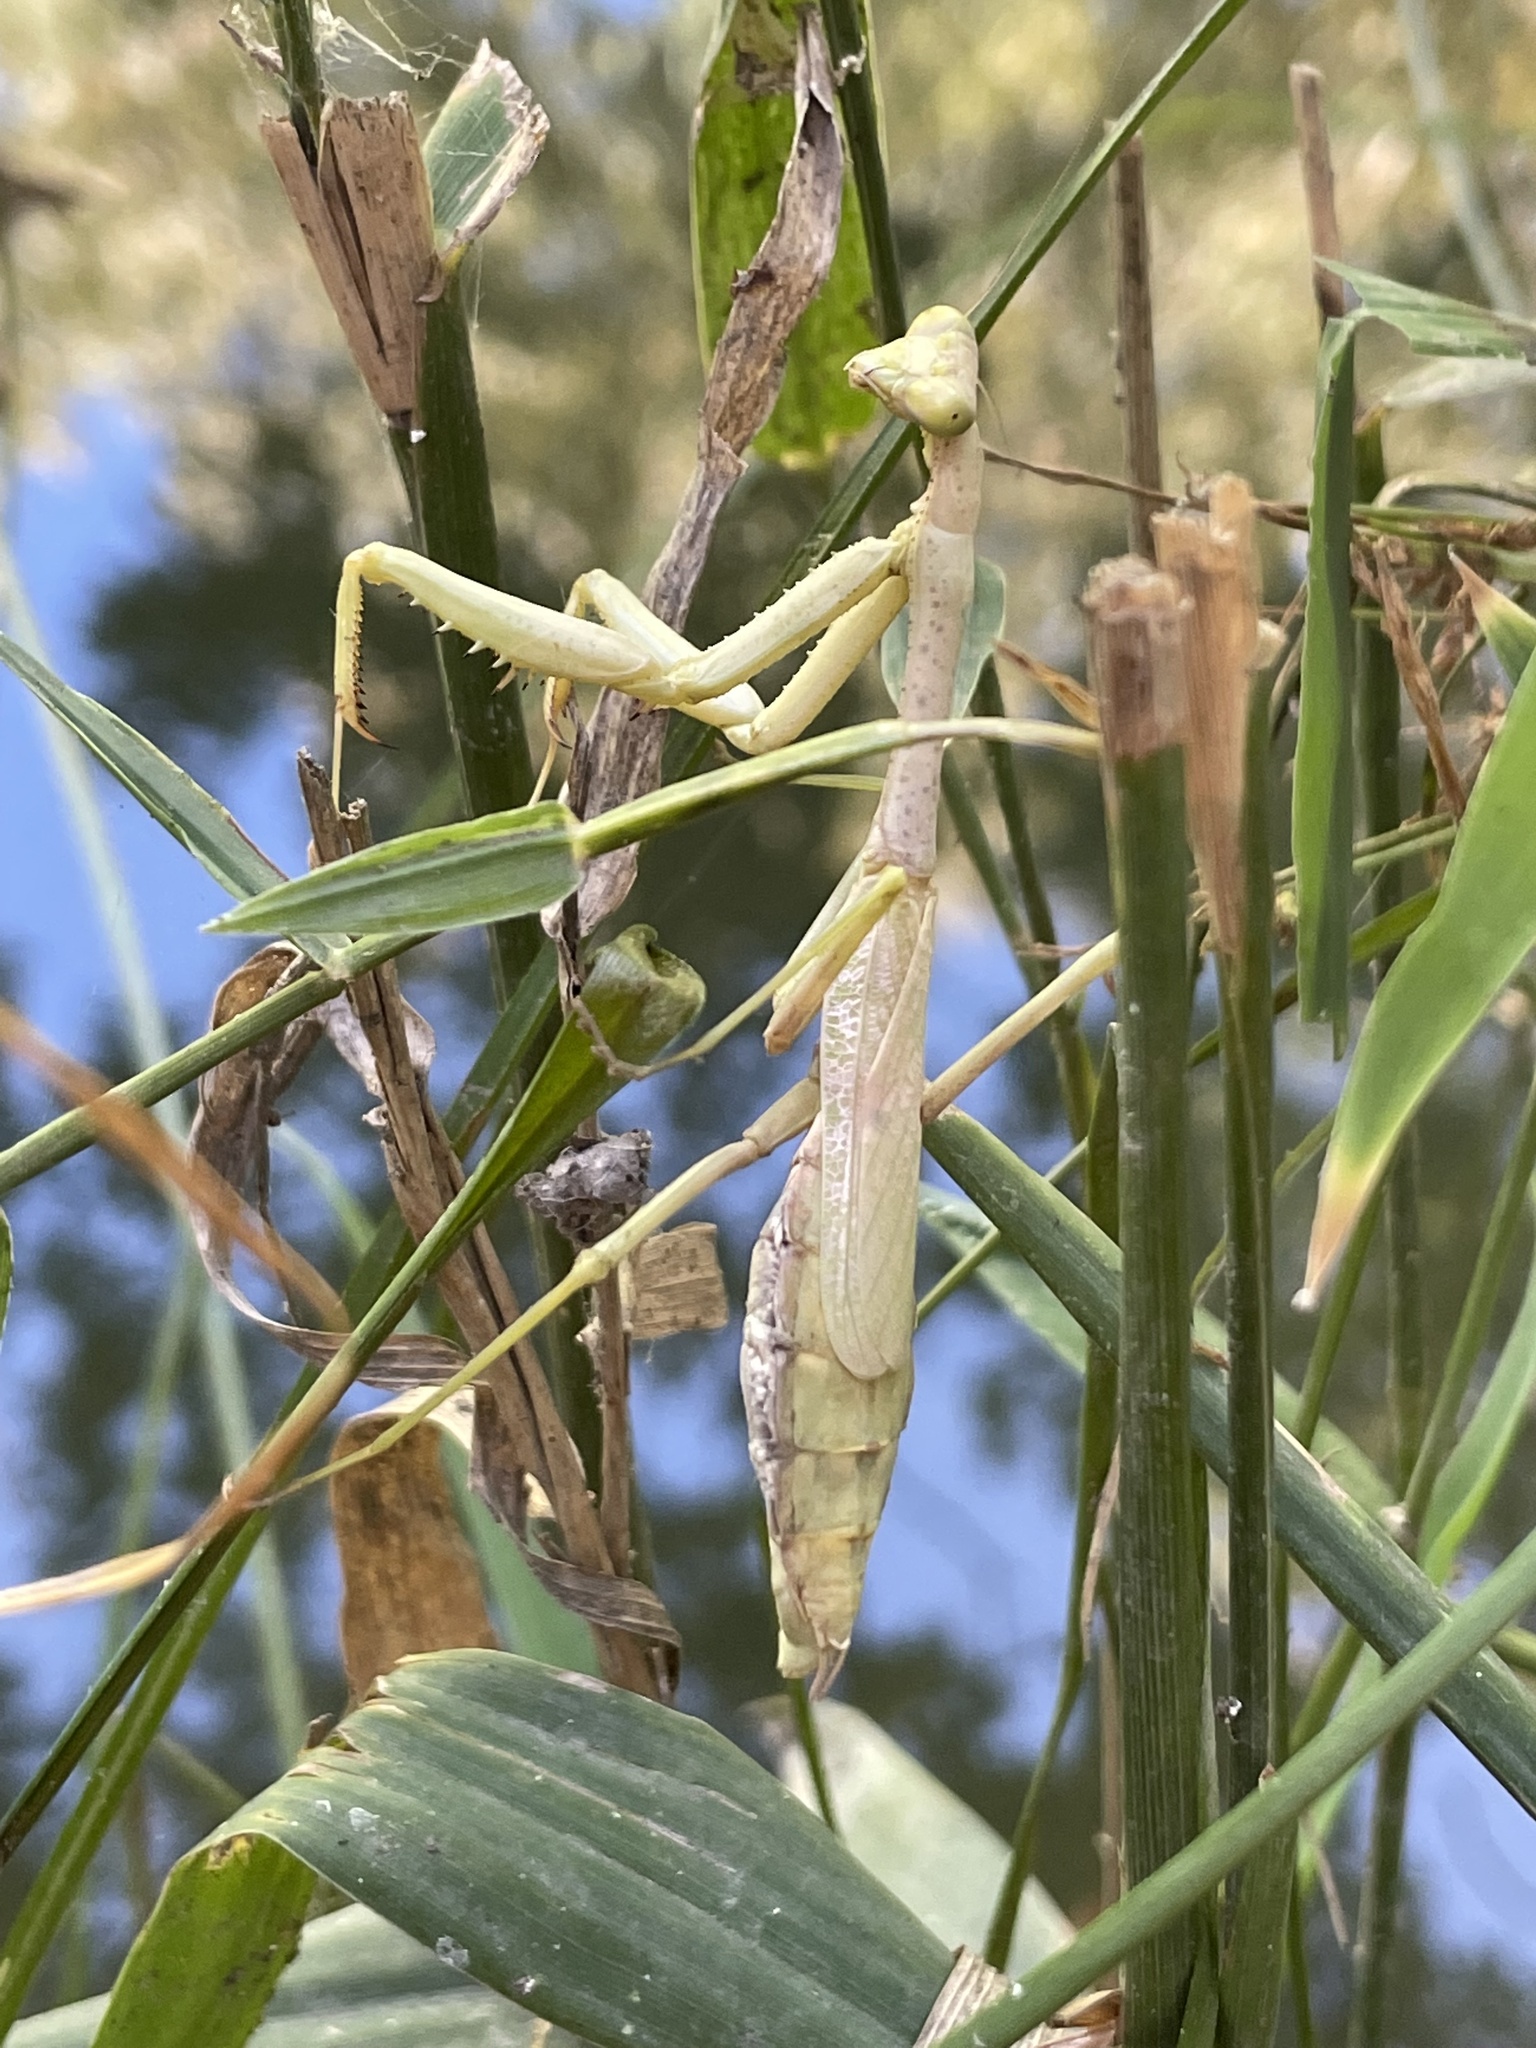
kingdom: Animalia
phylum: Arthropoda
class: Insecta
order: Mantodea
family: Mantidae
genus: Stagmomantis
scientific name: Stagmomantis carolina
